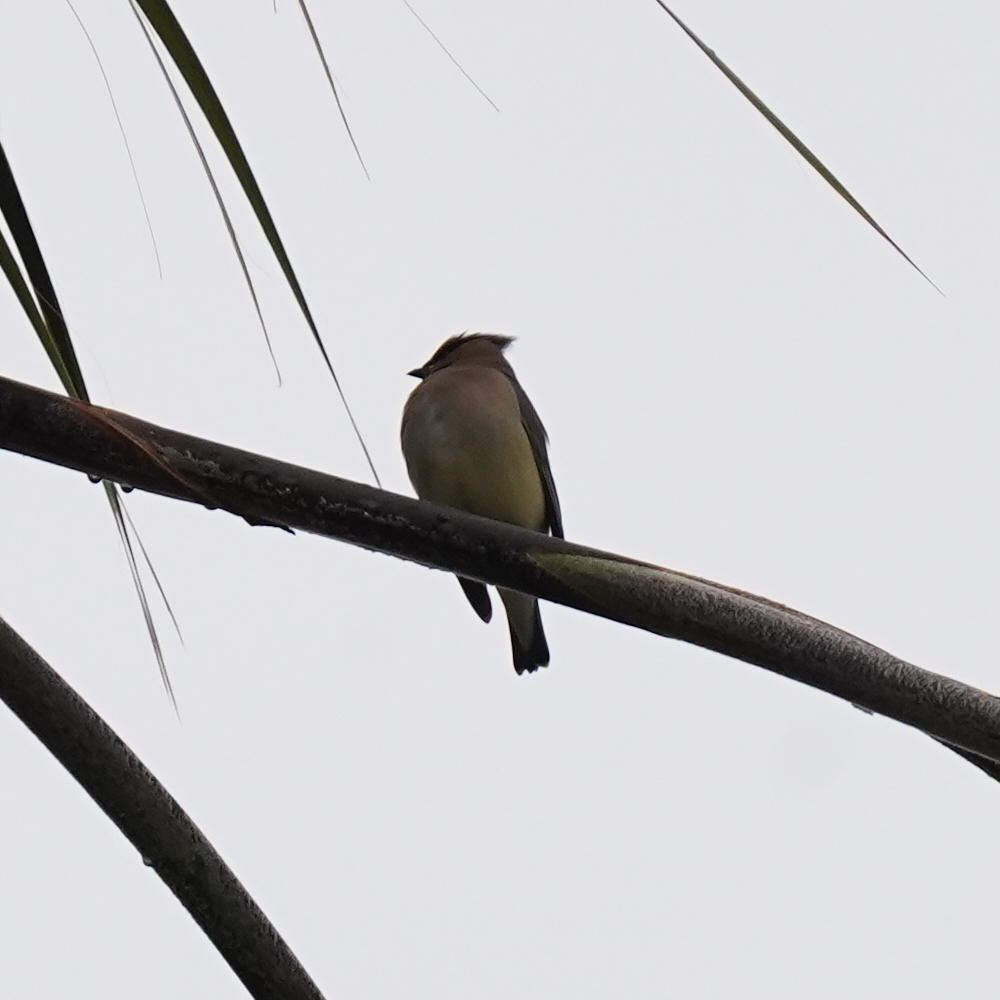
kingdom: Animalia
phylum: Chordata
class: Aves
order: Passeriformes
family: Bombycillidae
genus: Bombycilla
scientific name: Bombycilla cedrorum
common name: Cedar waxwing
